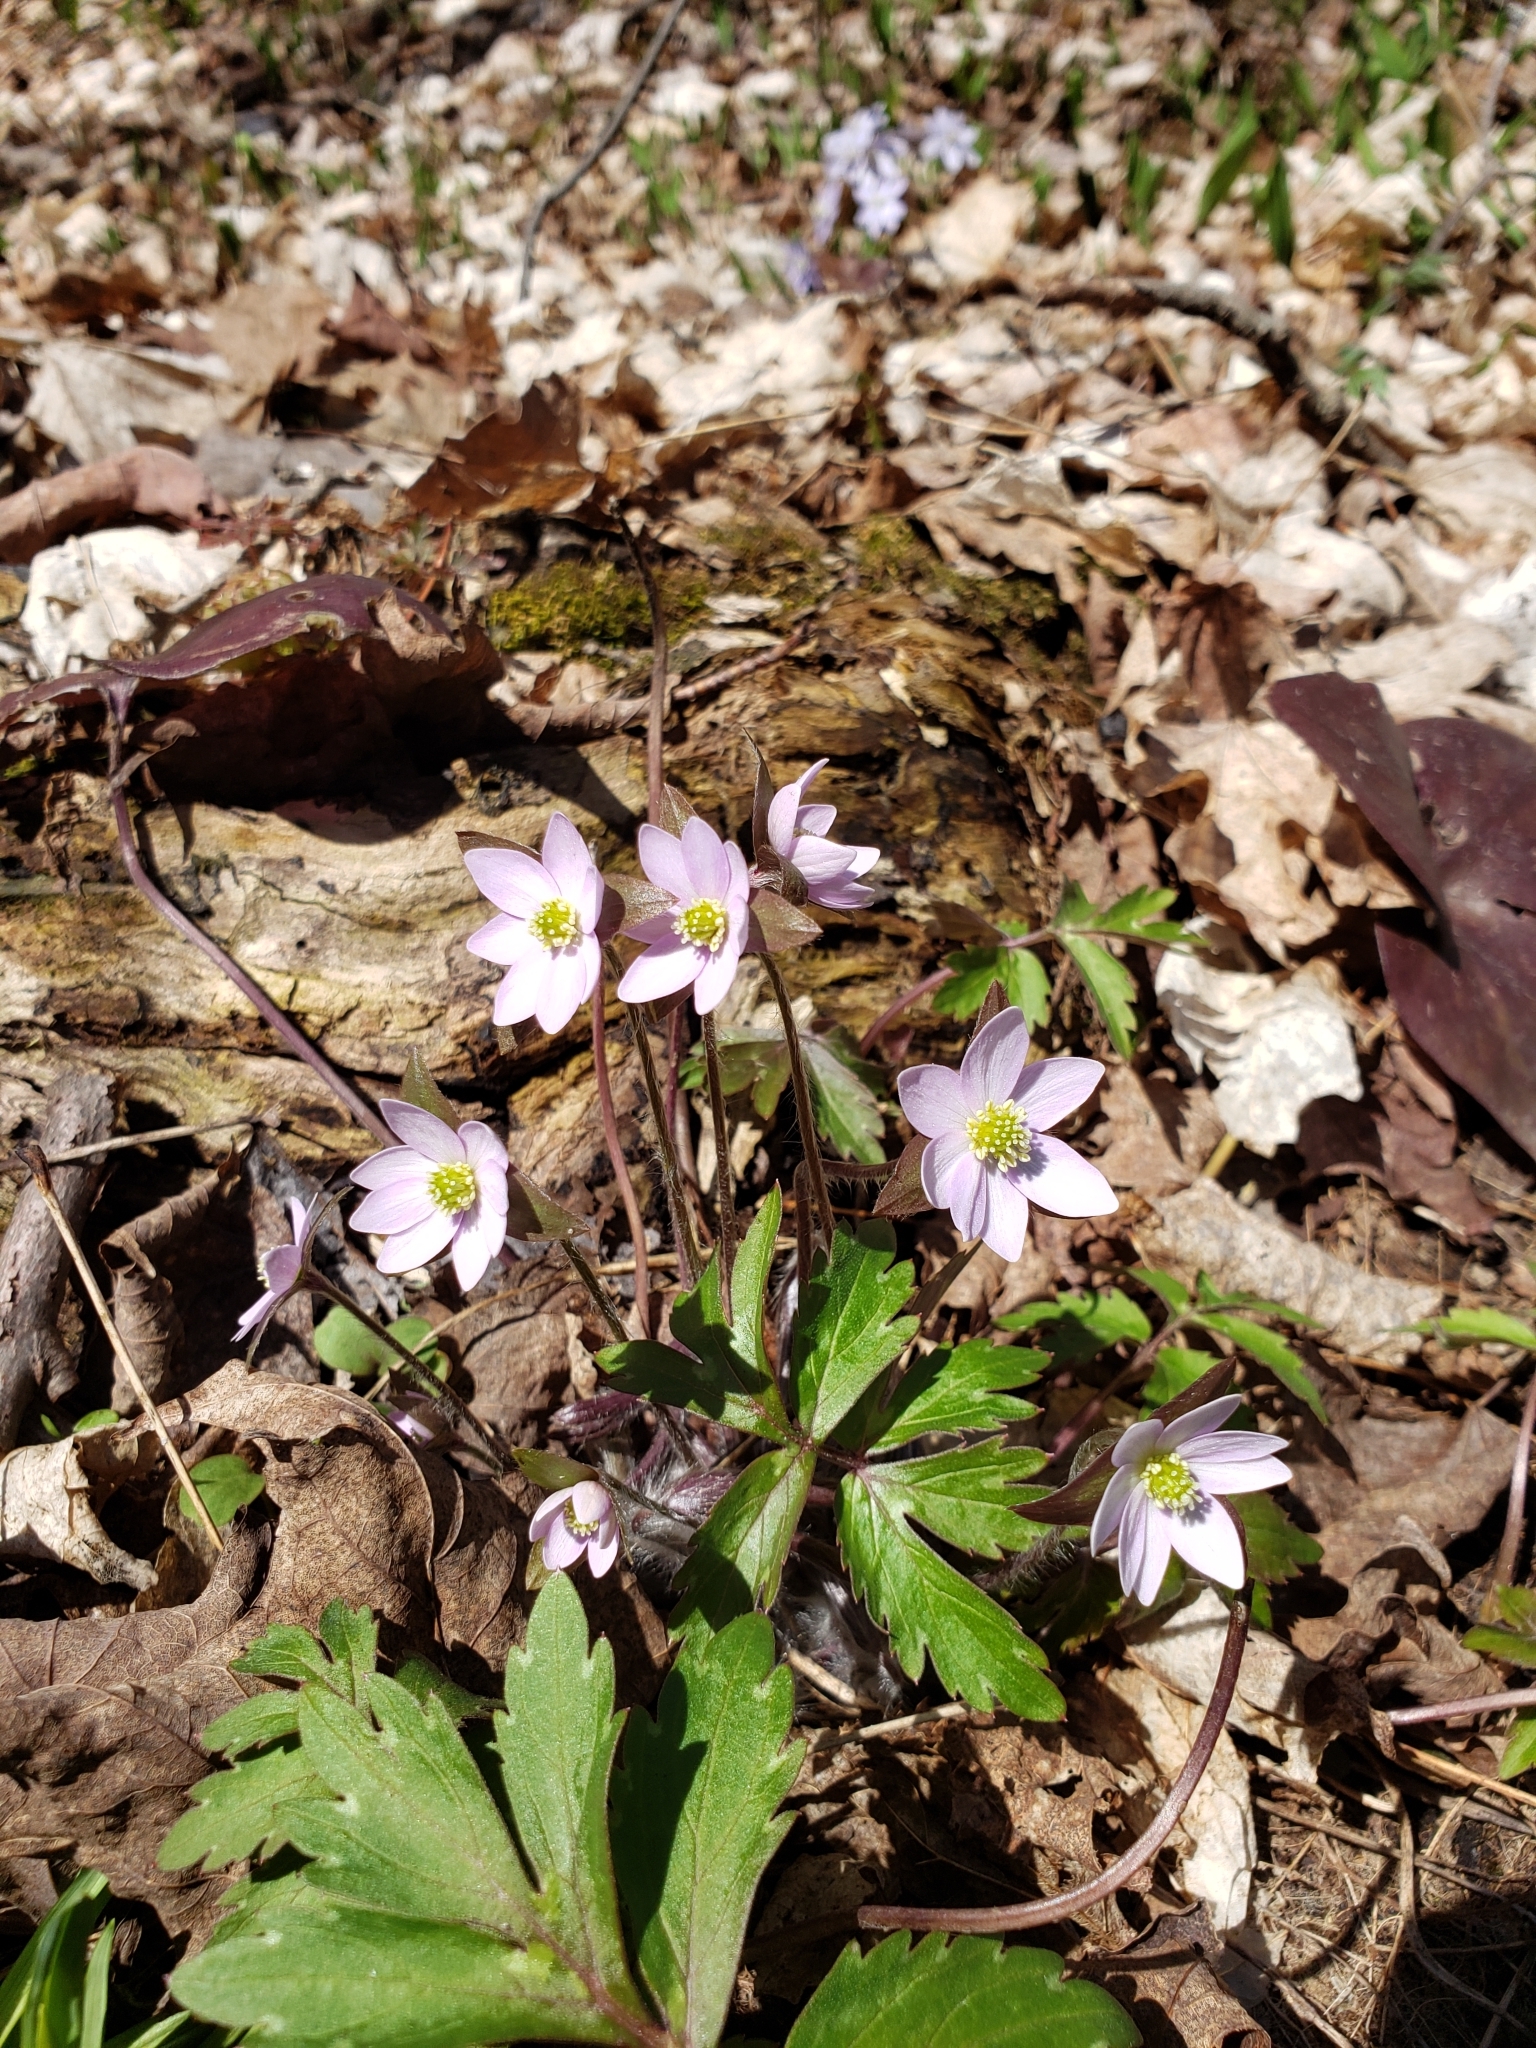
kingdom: Plantae
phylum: Tracheophyta
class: Magnoliopsida
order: Ranunculales
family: Ranunculaceae
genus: Hepatica
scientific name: Hepatica acutiloba
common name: Sharp-lobed hepatica
